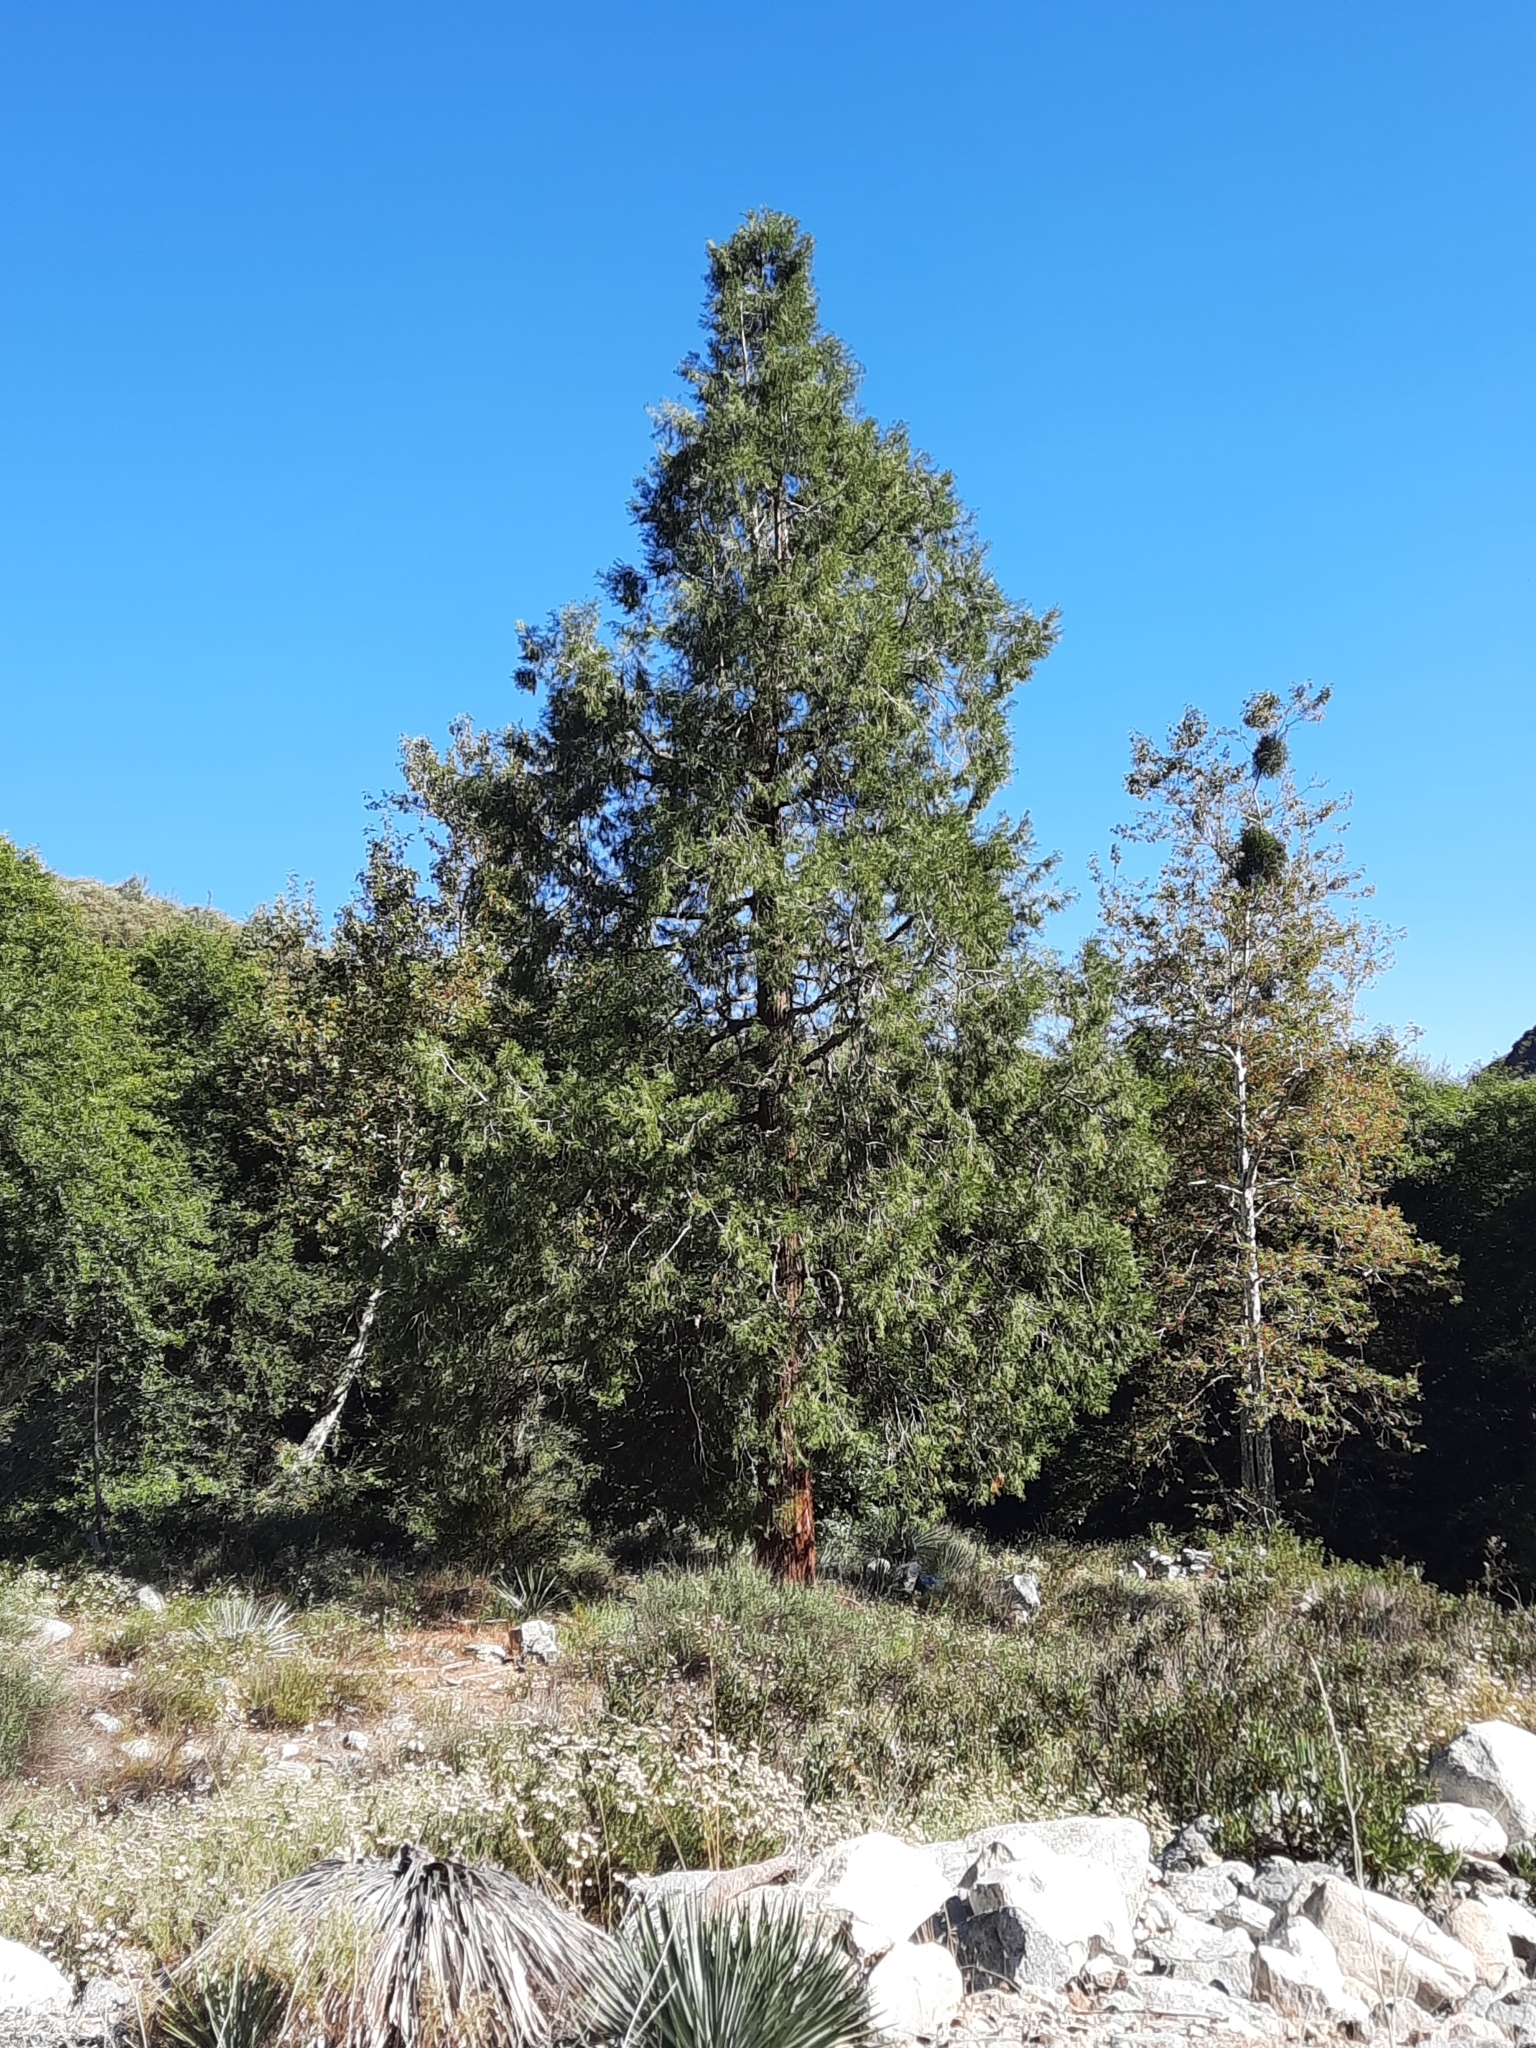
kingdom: Plantae
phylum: Tracheophyta
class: Pinopsida
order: Pinales
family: Cupressaceae
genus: Calocedrus
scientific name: Calocedrus decurrens
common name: Californian incense-cedar
